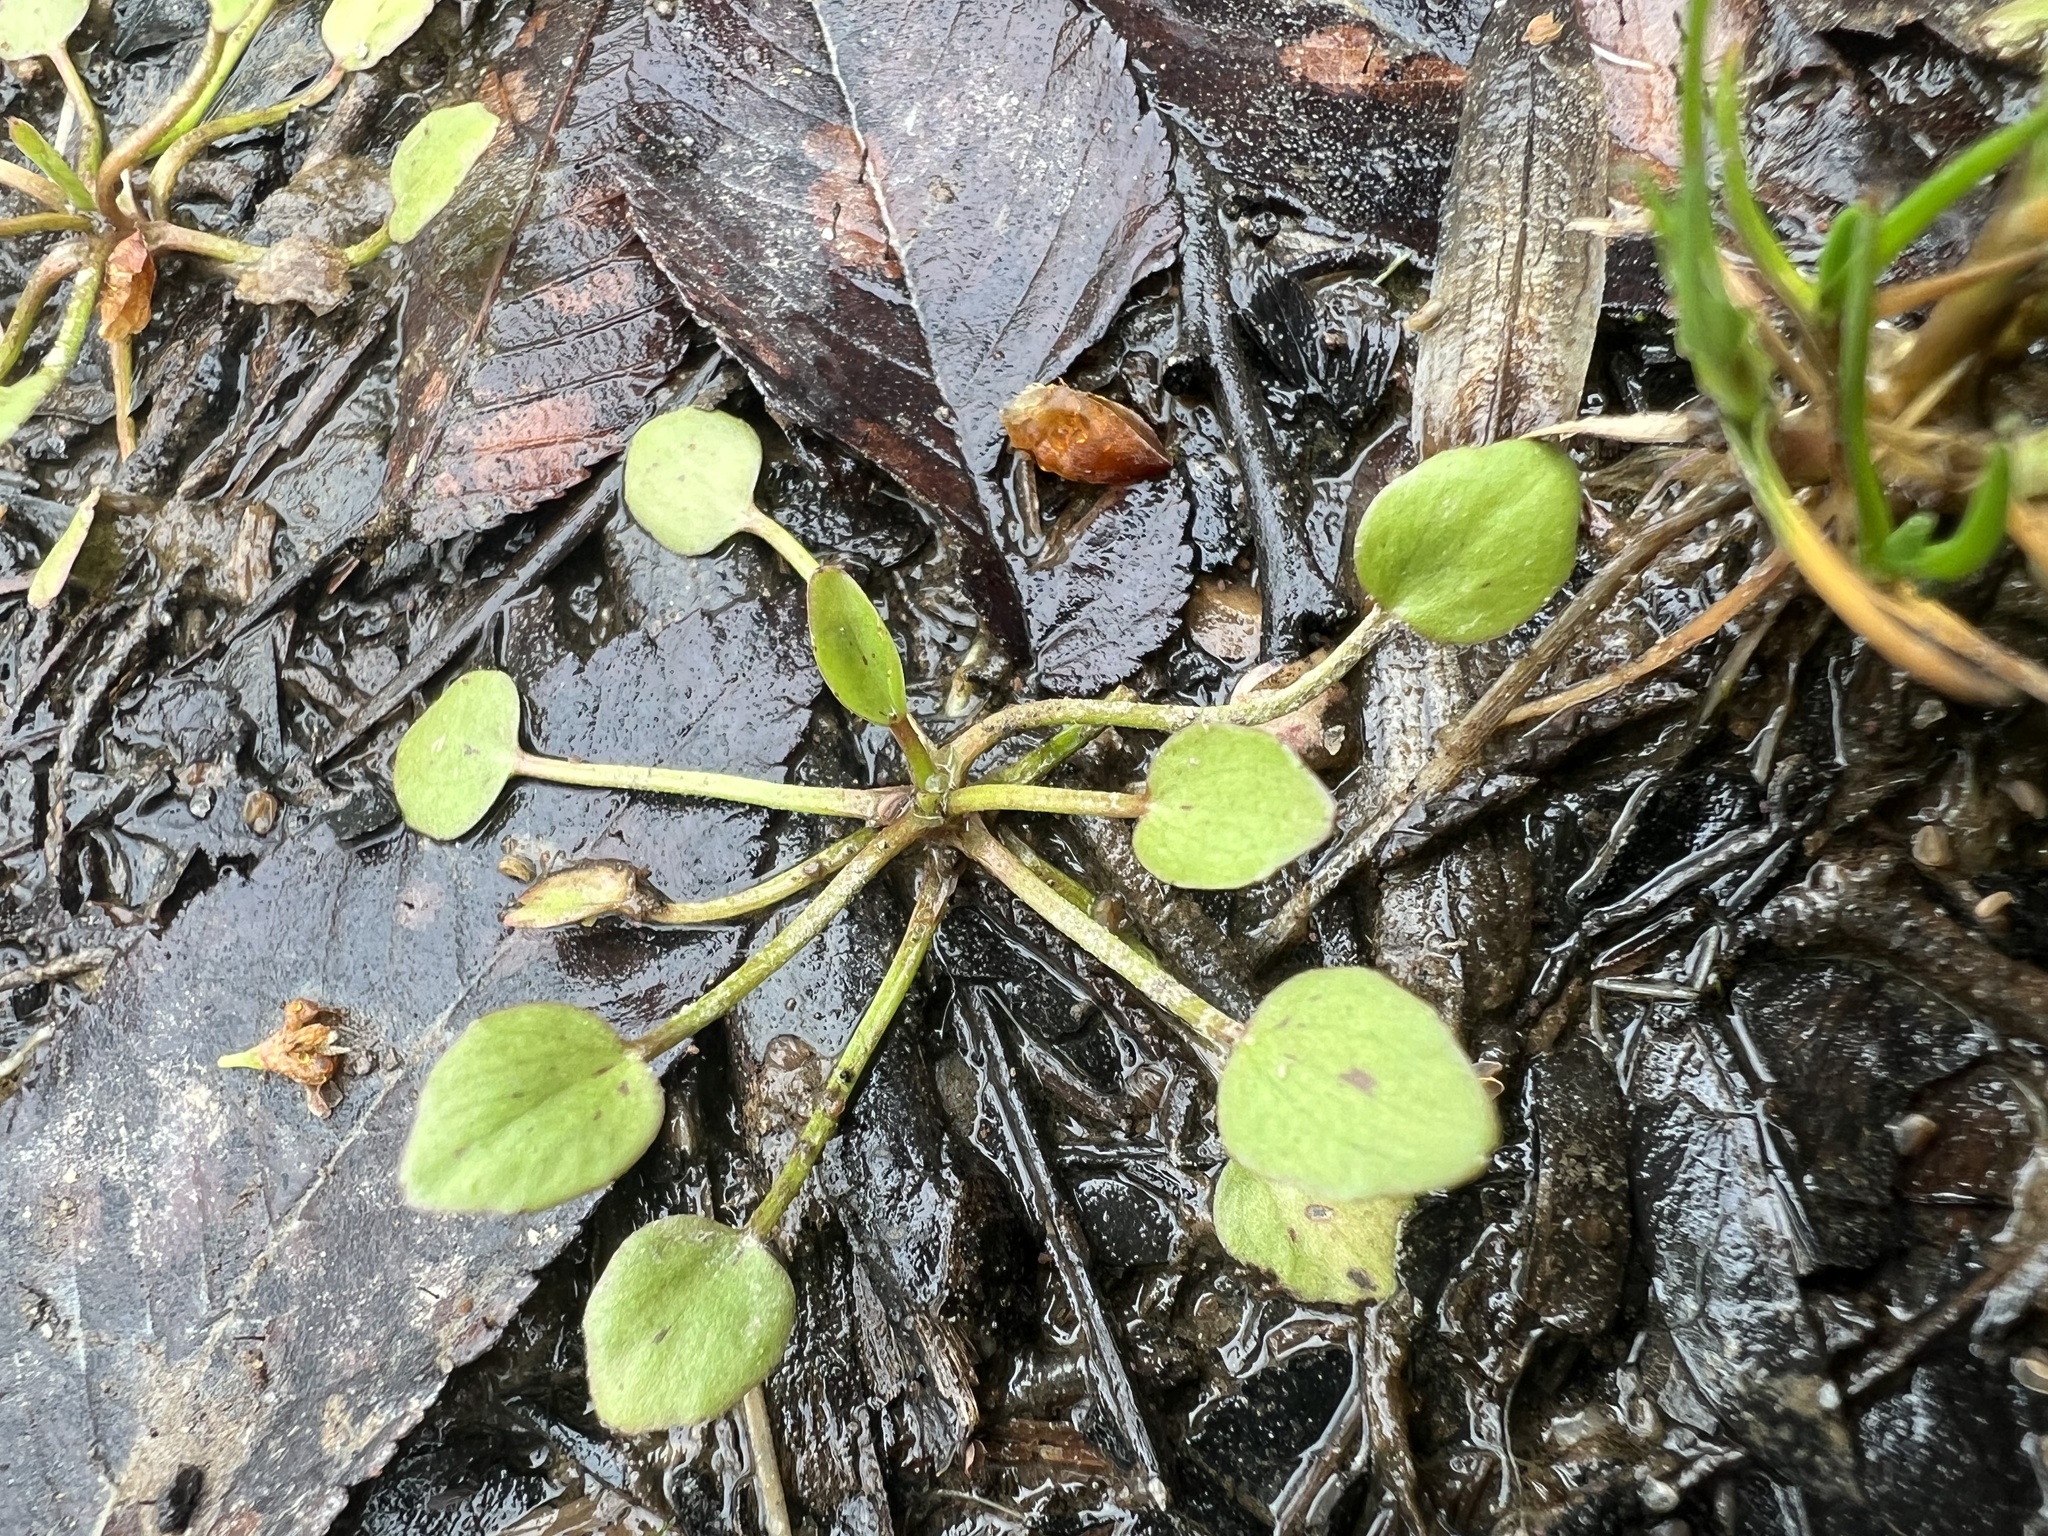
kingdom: Plantae
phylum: Tracheophyta
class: Magnoliopsida
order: Ranunculales
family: Ranunculaceae
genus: Ranunculus
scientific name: Ranunculus pusillus
